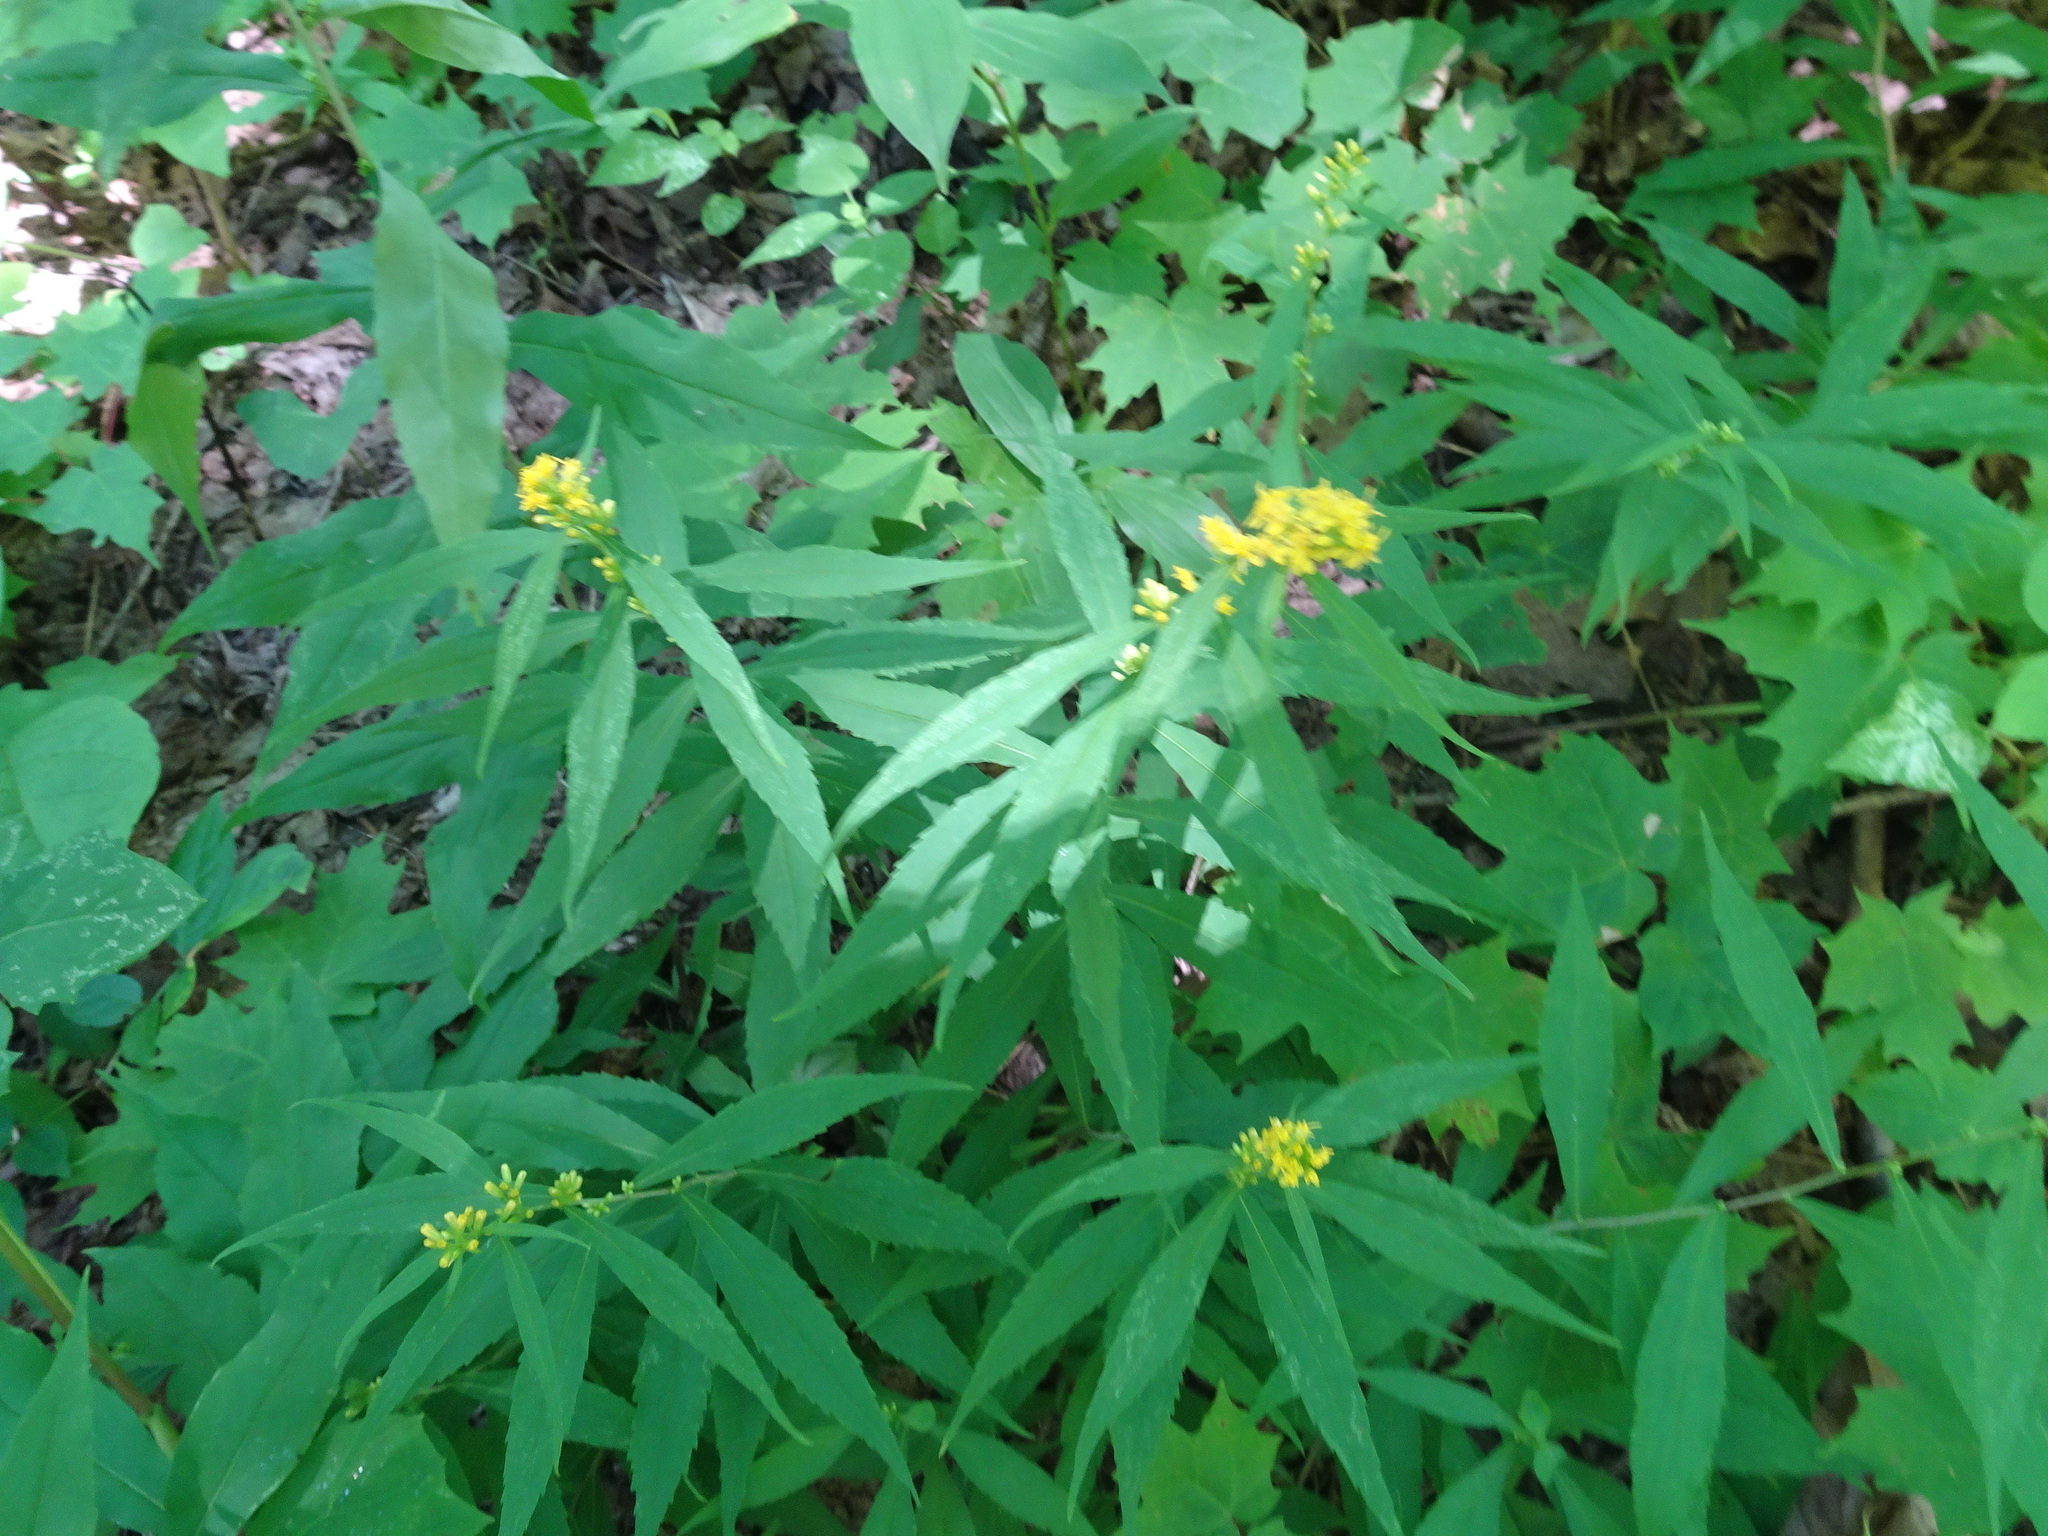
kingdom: Plantae
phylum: Tracheophyta
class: Magnoliopsida
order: Asterales
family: Asteraceae
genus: Solidago
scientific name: Solidago caesia
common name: Woodland goldenrod
